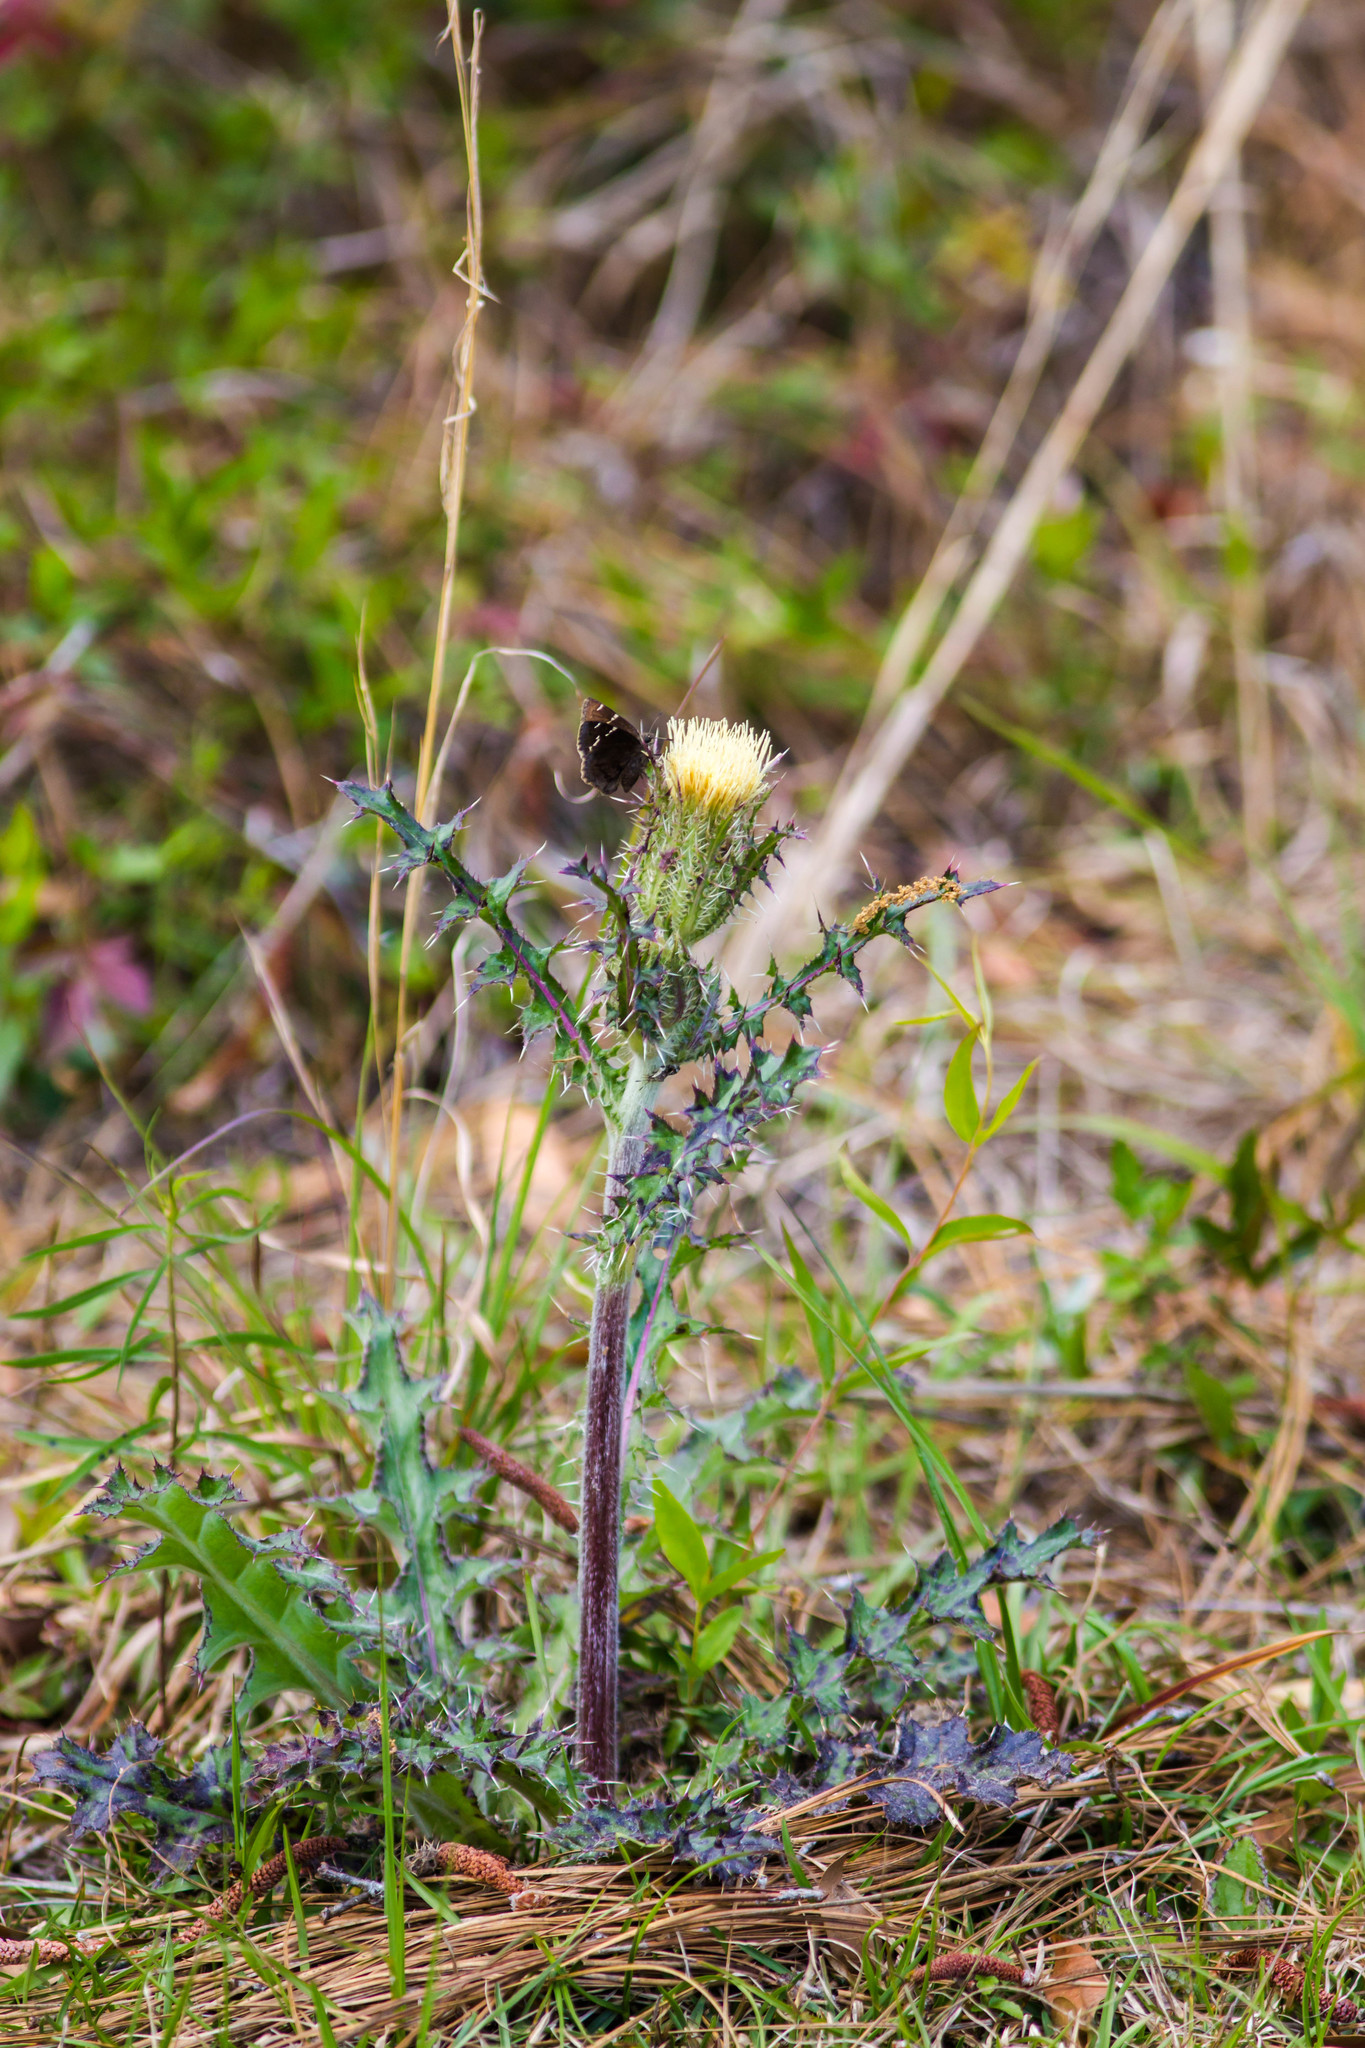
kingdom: Plantae
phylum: Tracheophyta
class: Magnoliopsida
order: Asterales
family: Asteraceae
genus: Cirsium
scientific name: Cirsium horridulum
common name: Bristly thistle
